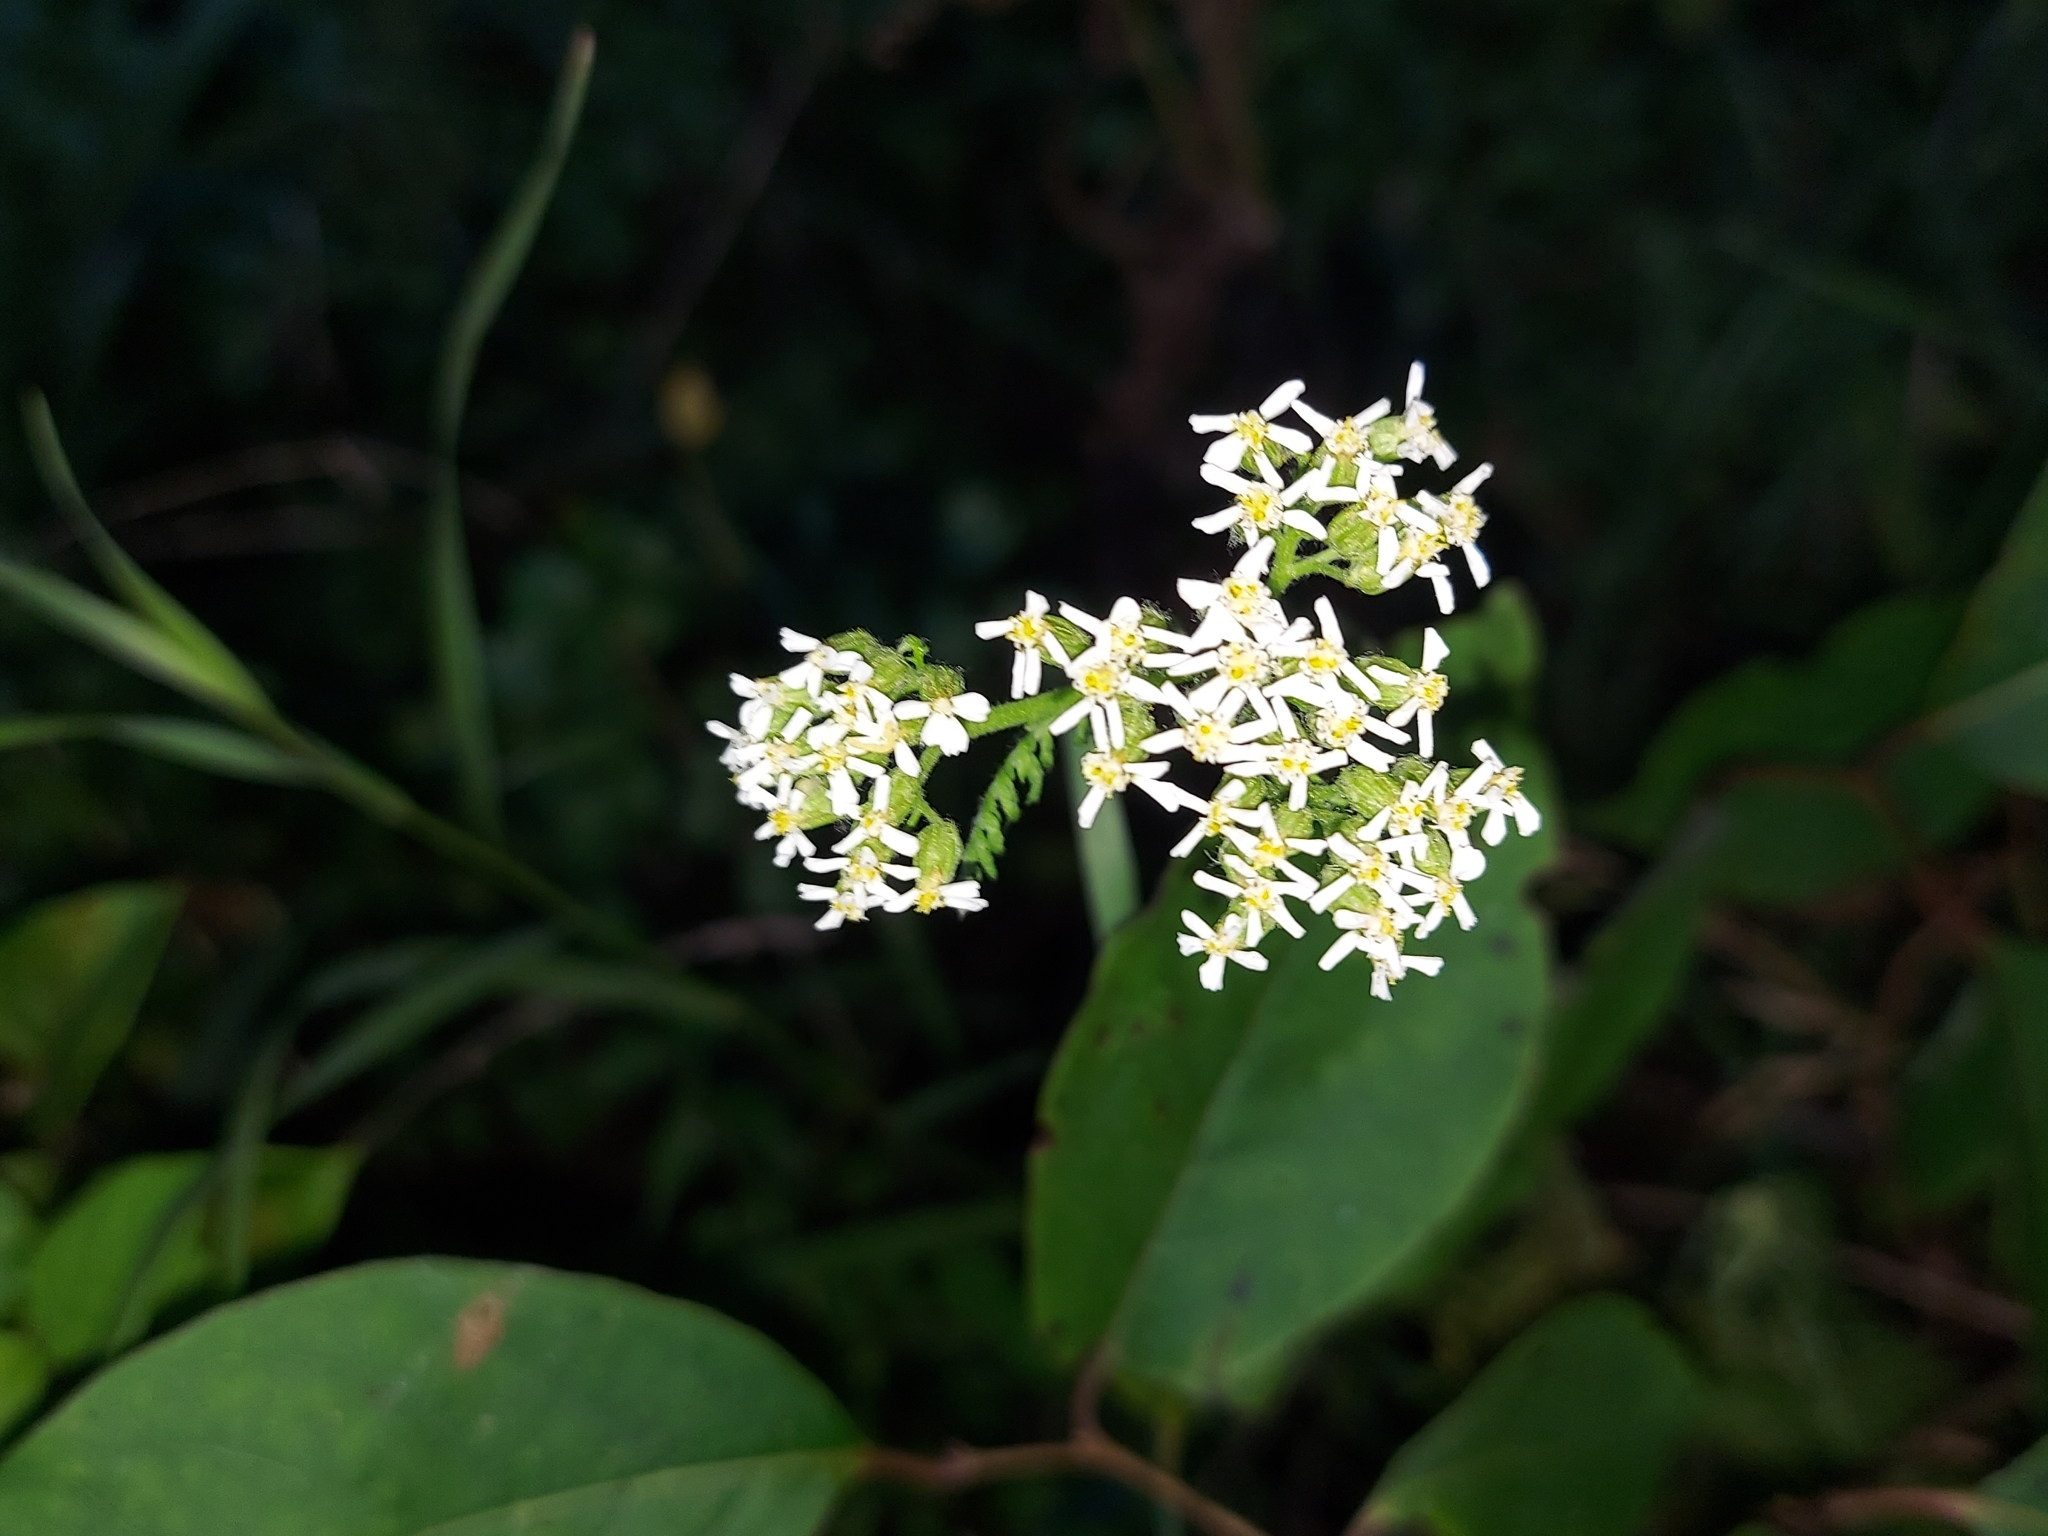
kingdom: Plantae
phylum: Tracheophyta
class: Magnoliopsida
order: Asterales
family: Asteraceae
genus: Achillea
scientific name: Achillea millefolium
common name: Yarrow
